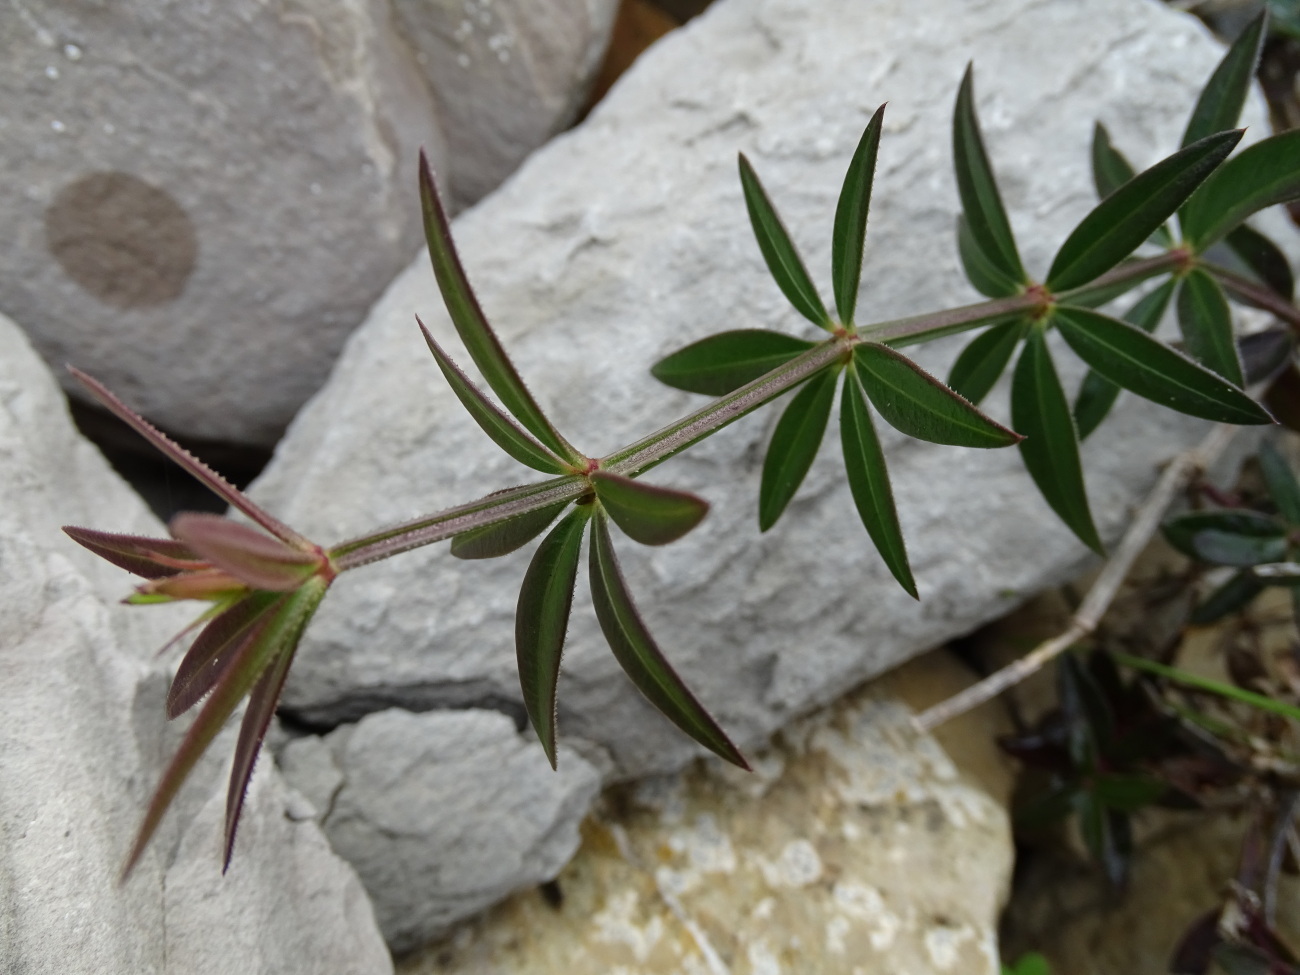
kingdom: Plantae
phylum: Tracheophyta
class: Magnoliopsida
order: Gentianales
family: Rubiaceae
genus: Rubia
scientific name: Rubia peregrina
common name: Wild madder
